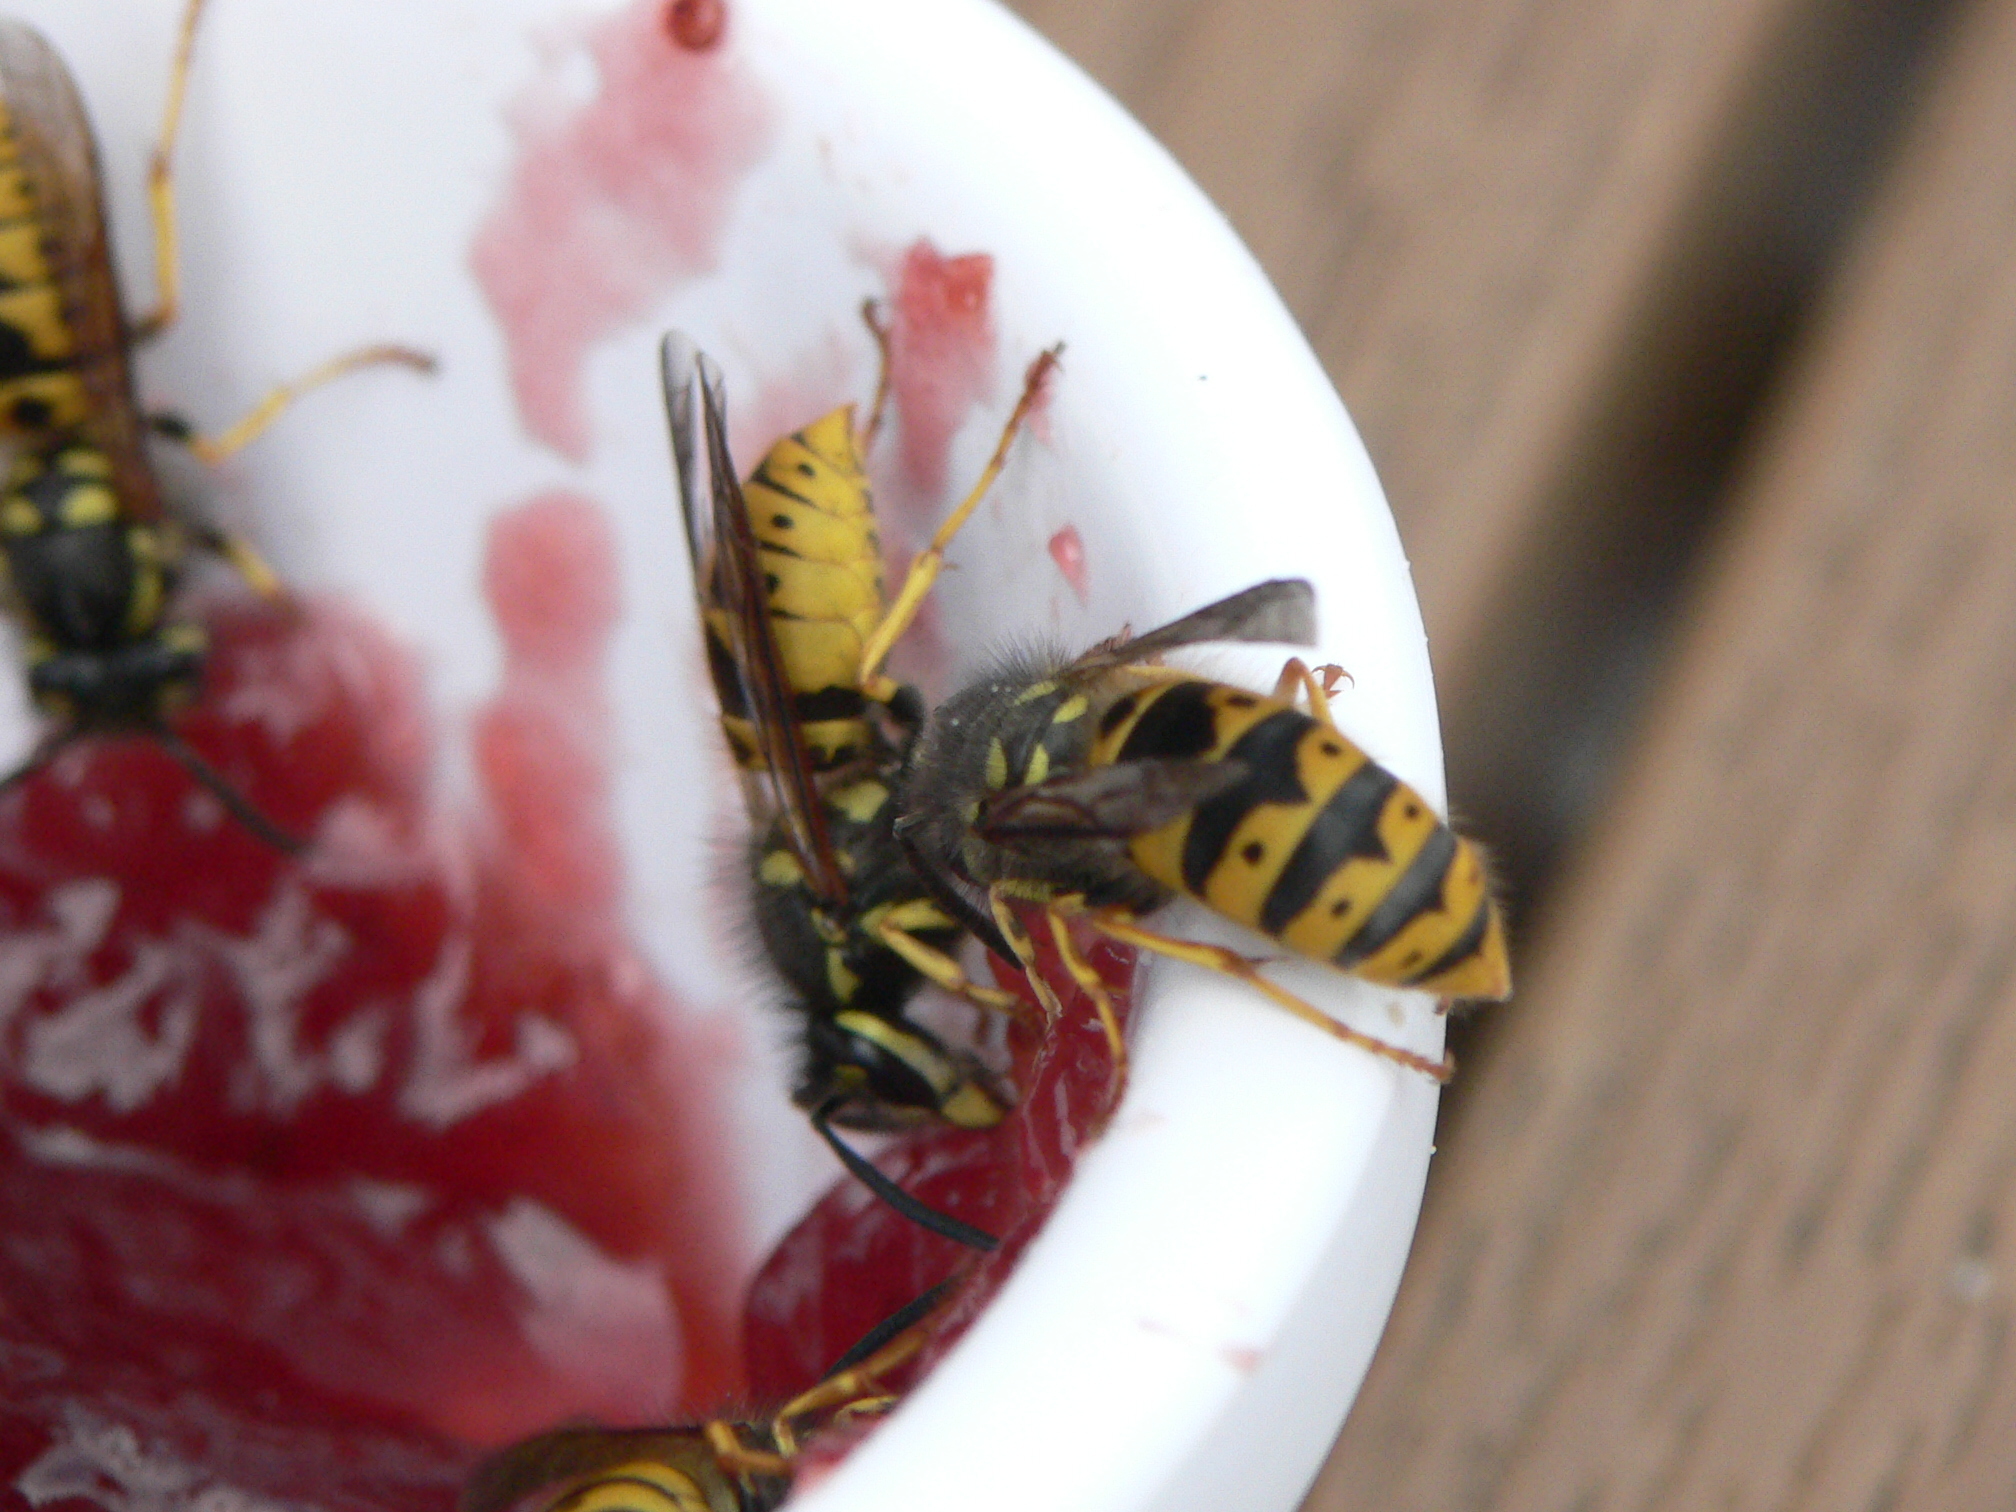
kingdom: Animalia
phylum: Arthropoda
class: Insecta
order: Hymenoptera
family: Vespidae
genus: Vespula
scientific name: Vespula germanica
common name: German wasp
